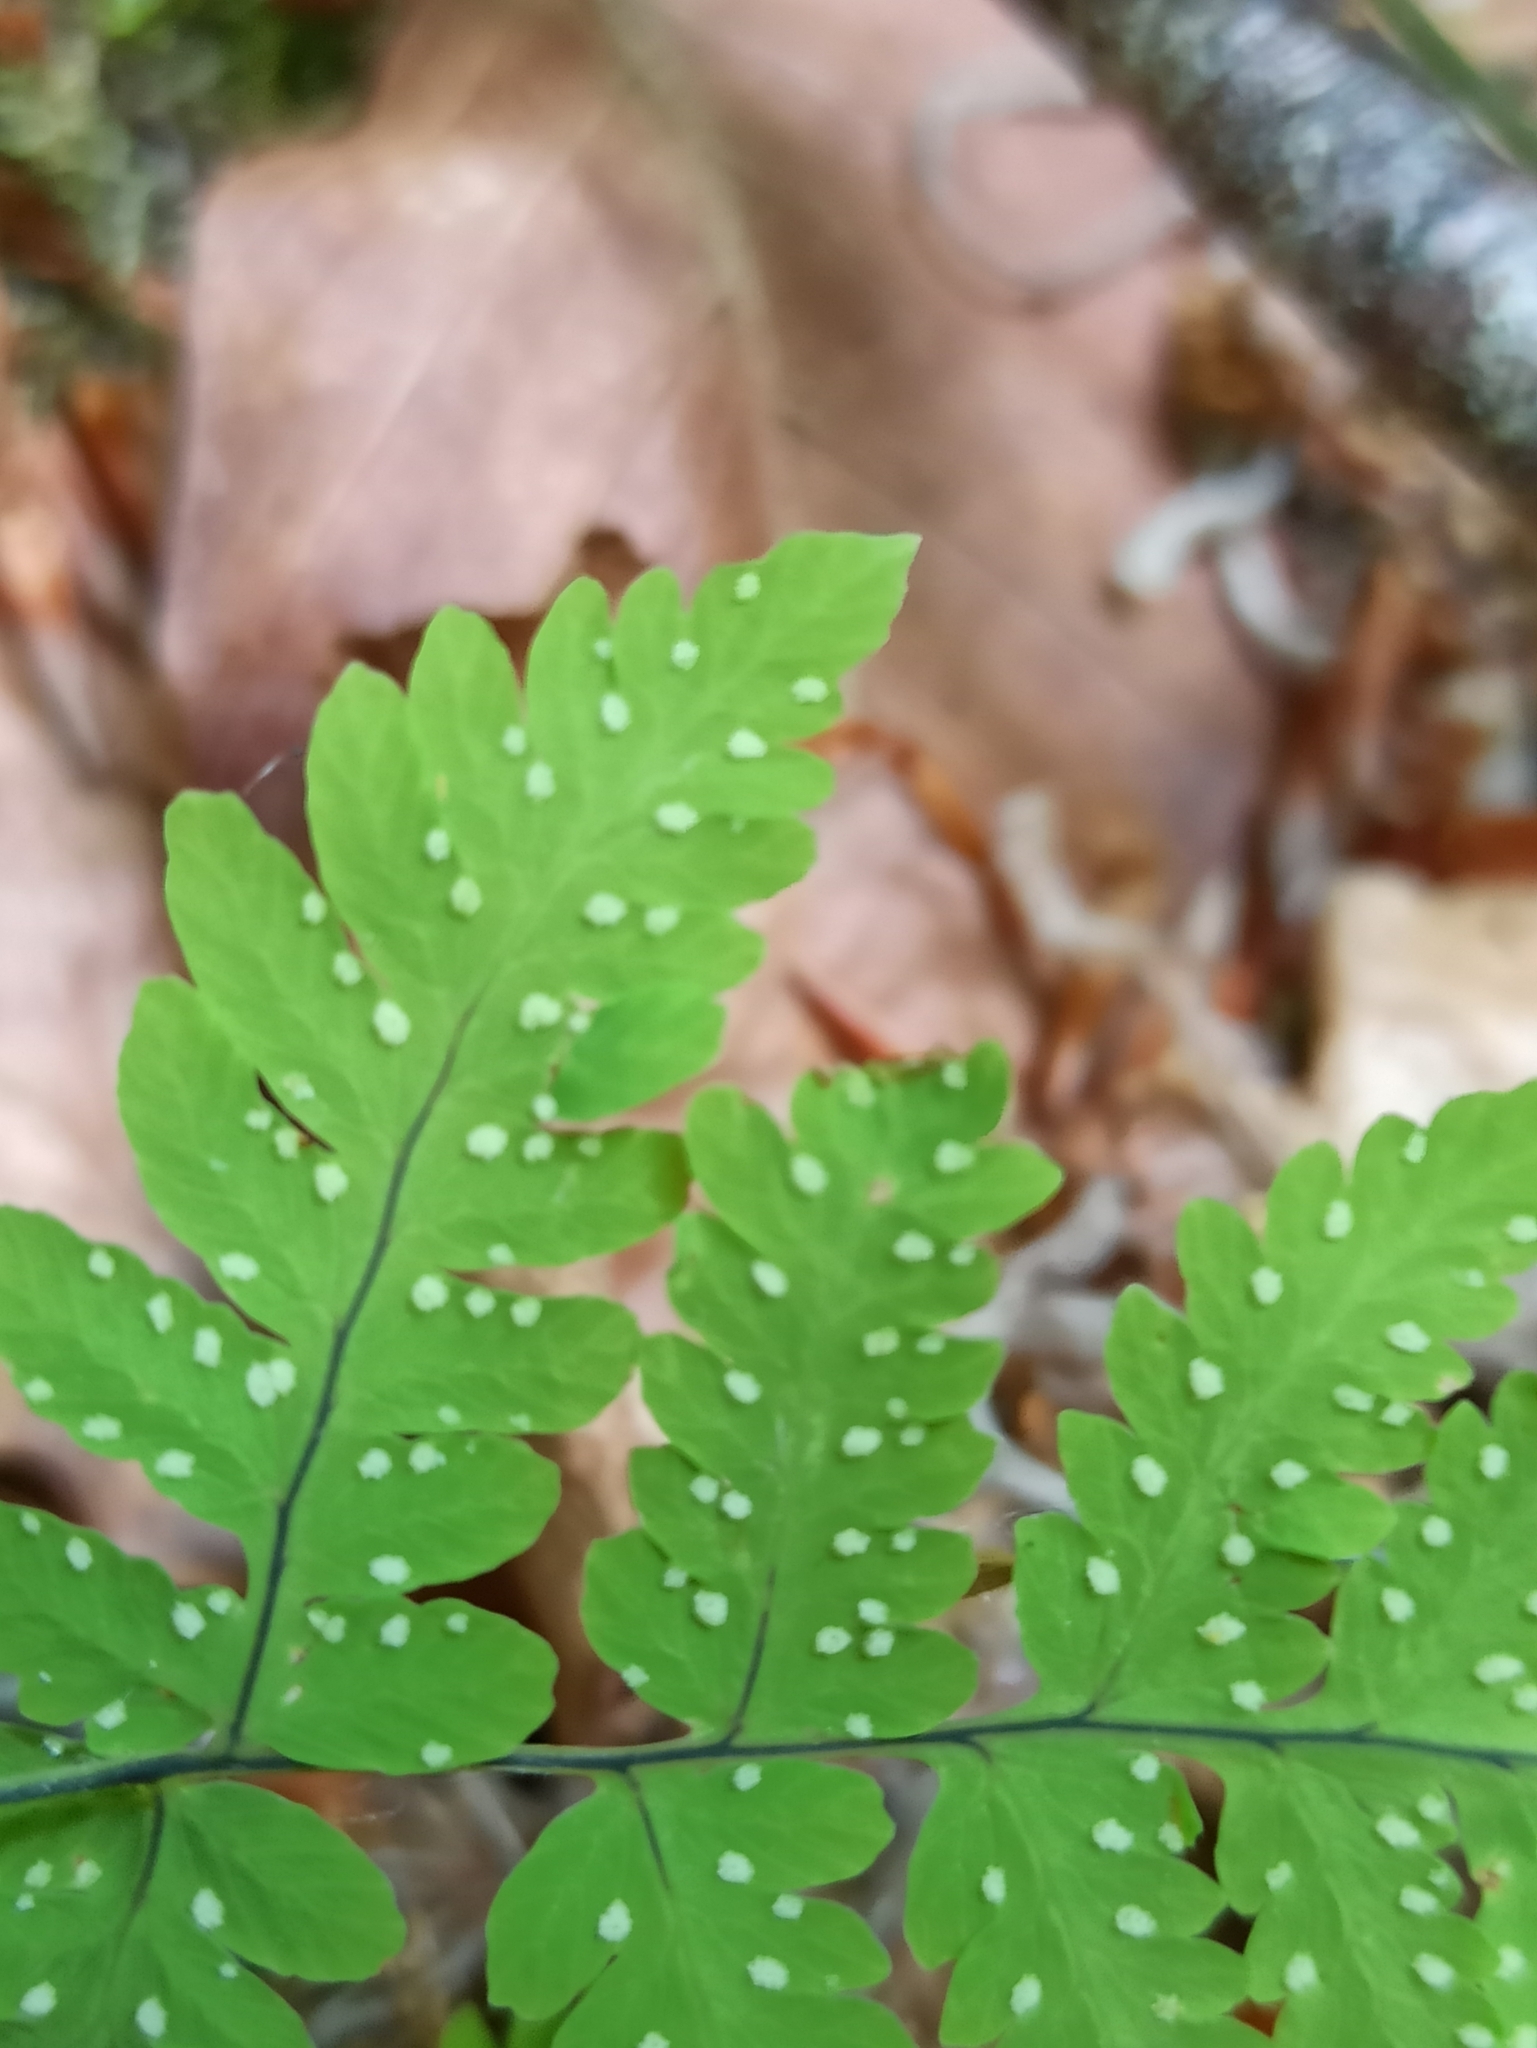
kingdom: Plantae
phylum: Tracheophyta
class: Polypodiopsida
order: Polypodiales
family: Cystopteridaceae
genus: Gymnocarpium
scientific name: Gymnocarpium dryopteris
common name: Oak fern
